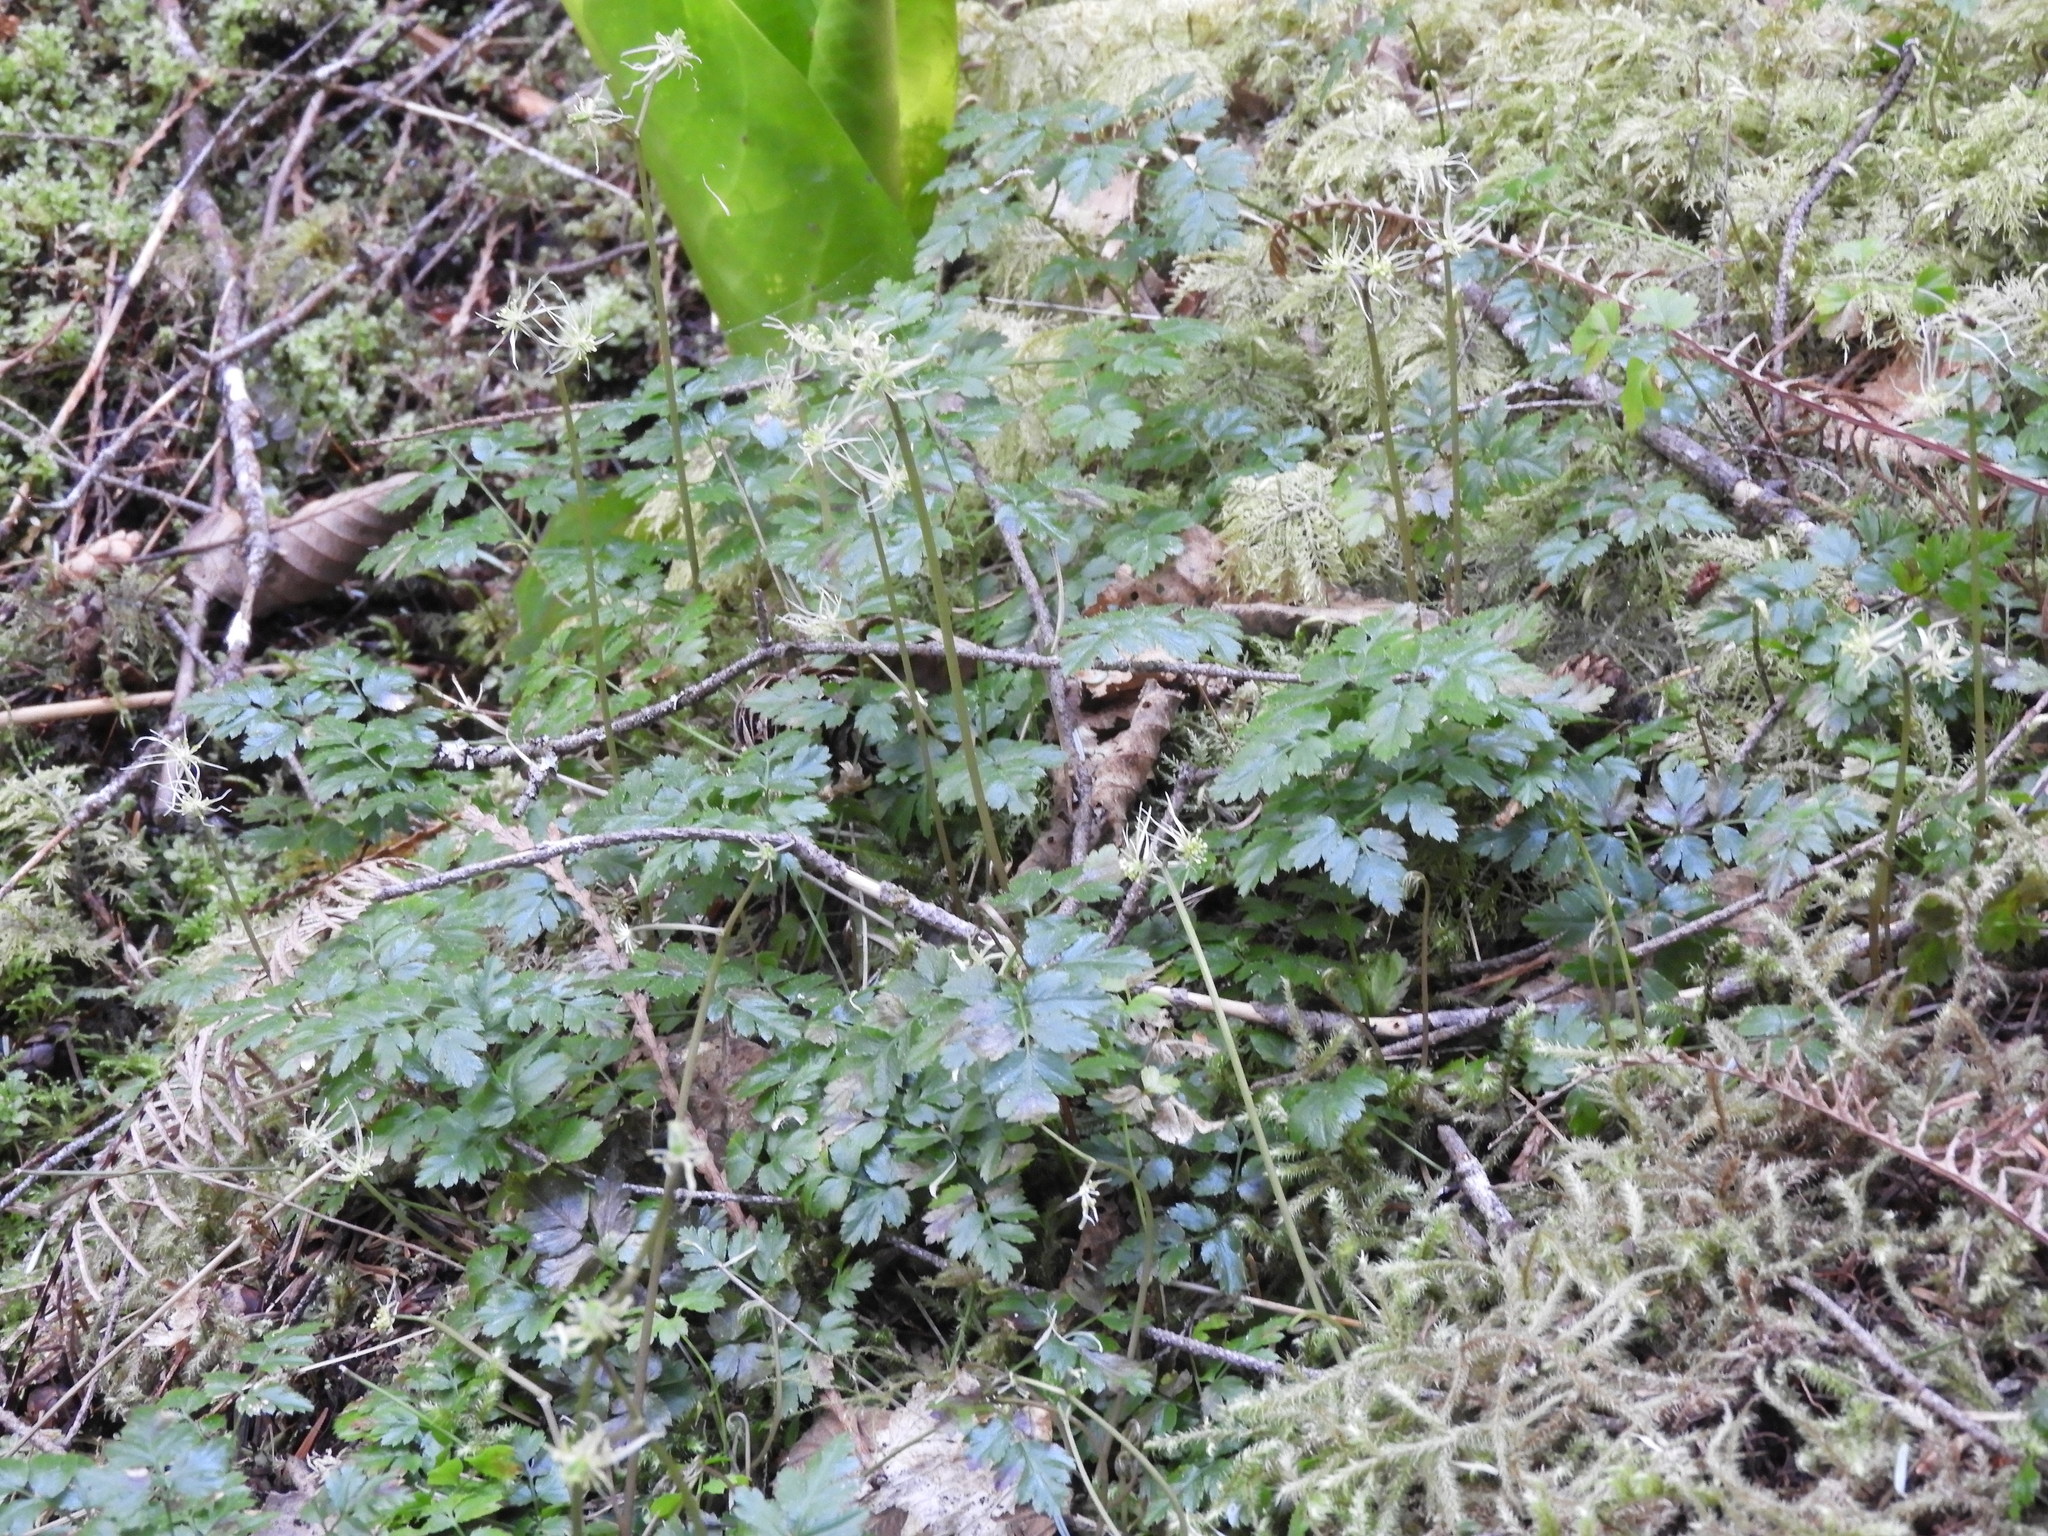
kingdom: Plantae
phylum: Tracheophyta
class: Magnoliopsida
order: Ranunculales
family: Ranunculaceae
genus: Coptis
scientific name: Coptis aspleniifolia
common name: Fern-leaved goldthread
